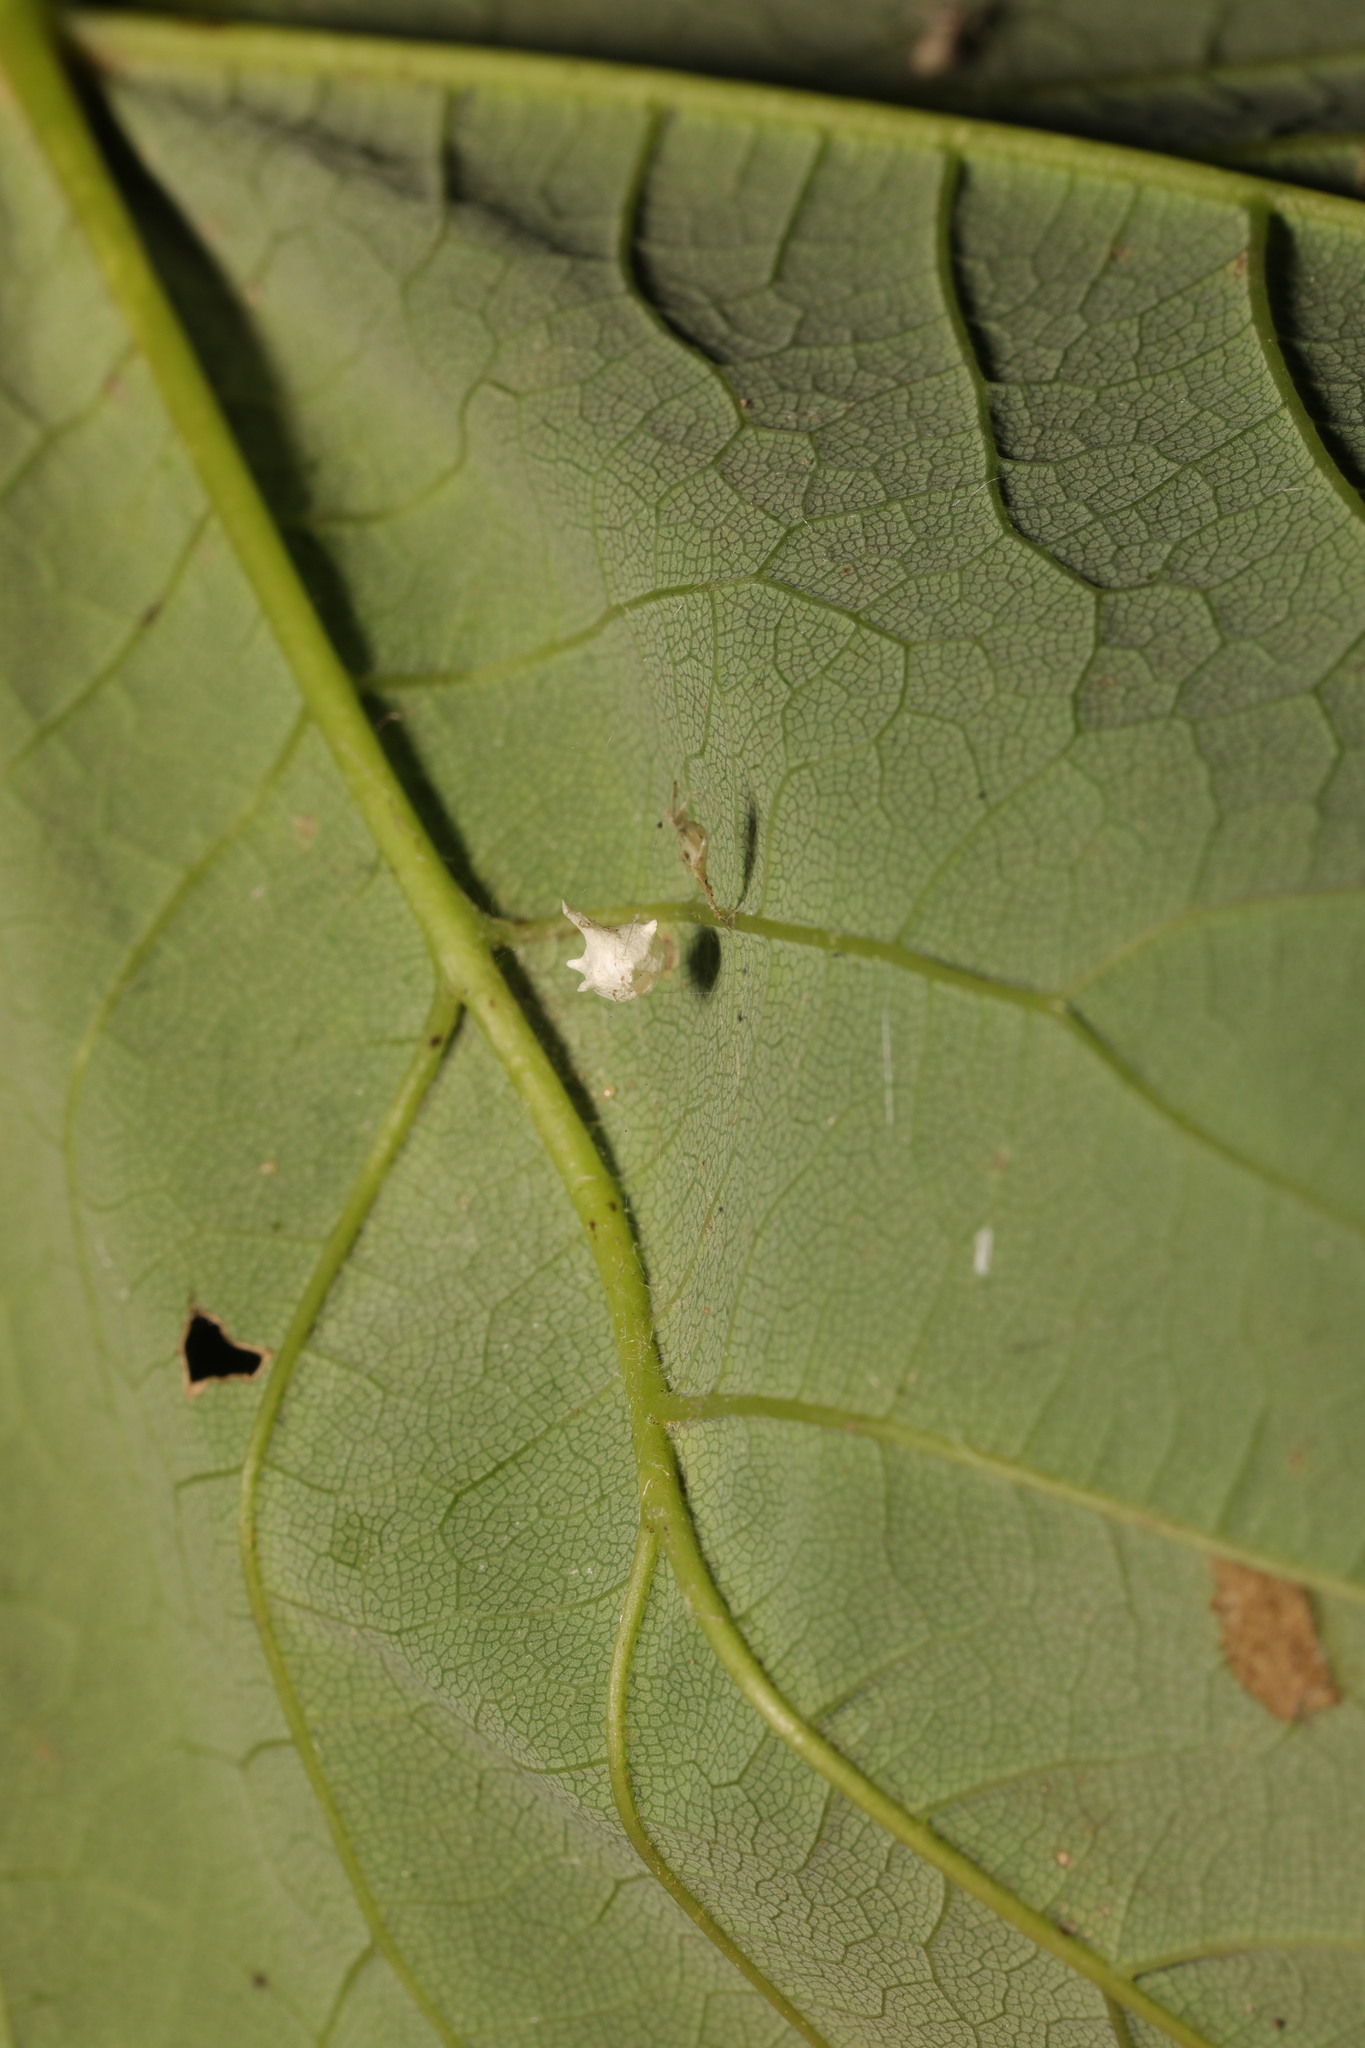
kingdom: Animalia
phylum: Arthropoda
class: Arachnida
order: Araneae
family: Theridiidae
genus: Paidiscura
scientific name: Paidiscura pallens
